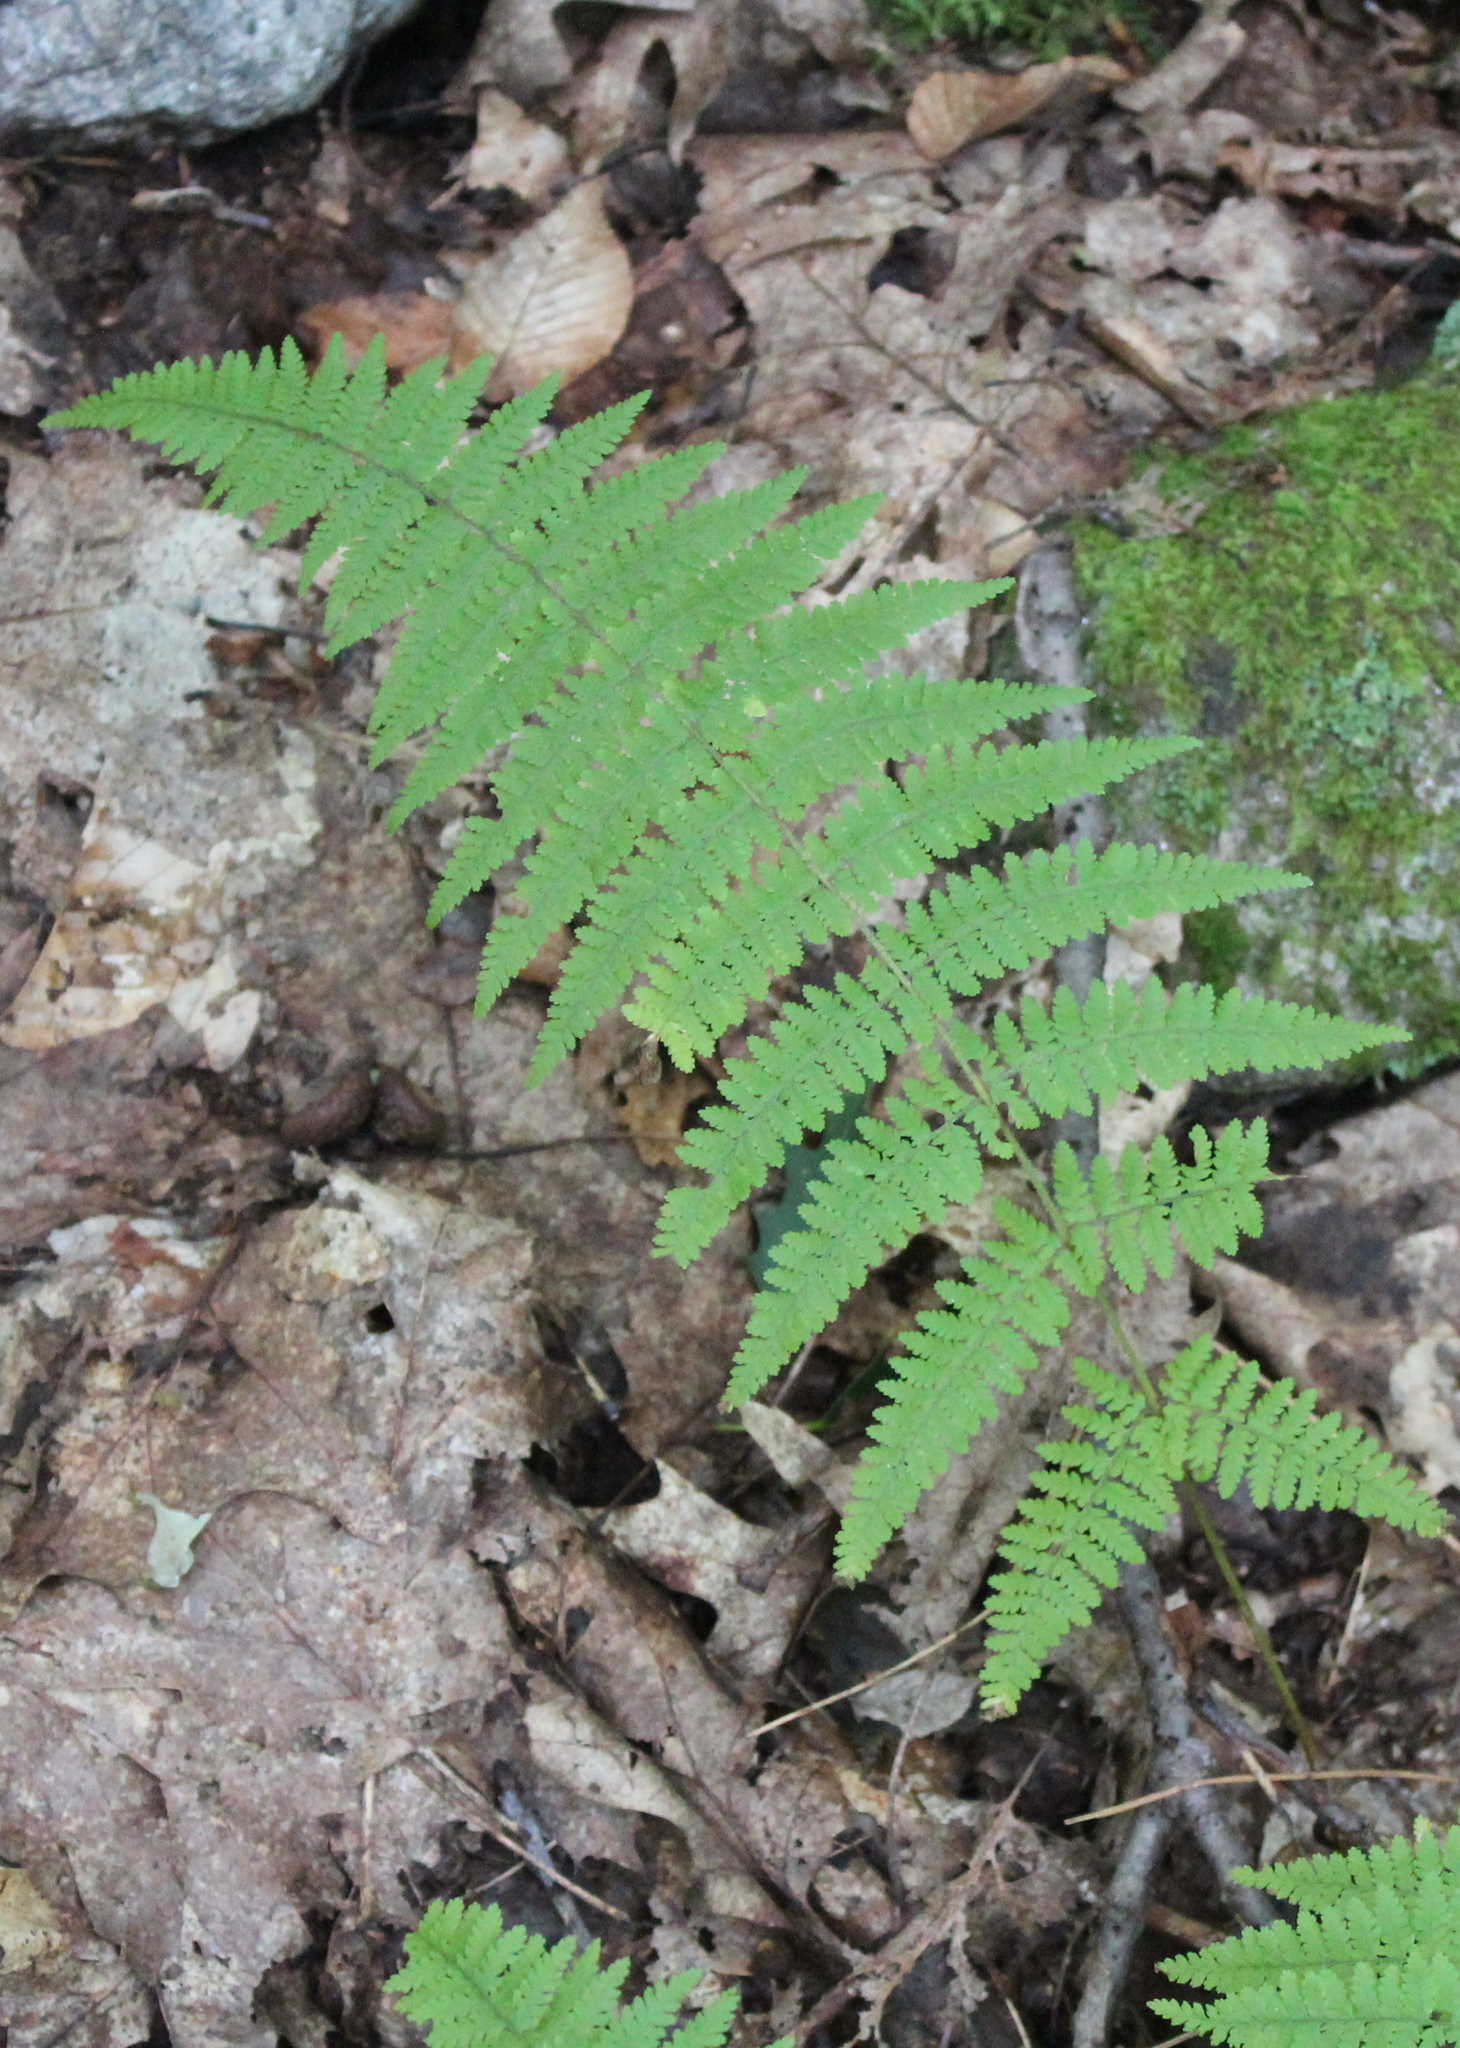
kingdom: Plantae
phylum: Tracheophyta
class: Polypodiopsida
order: Polypodiales
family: Dennstaedtiaceae
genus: Sitobolium
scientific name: Sitobolium punctilobum
